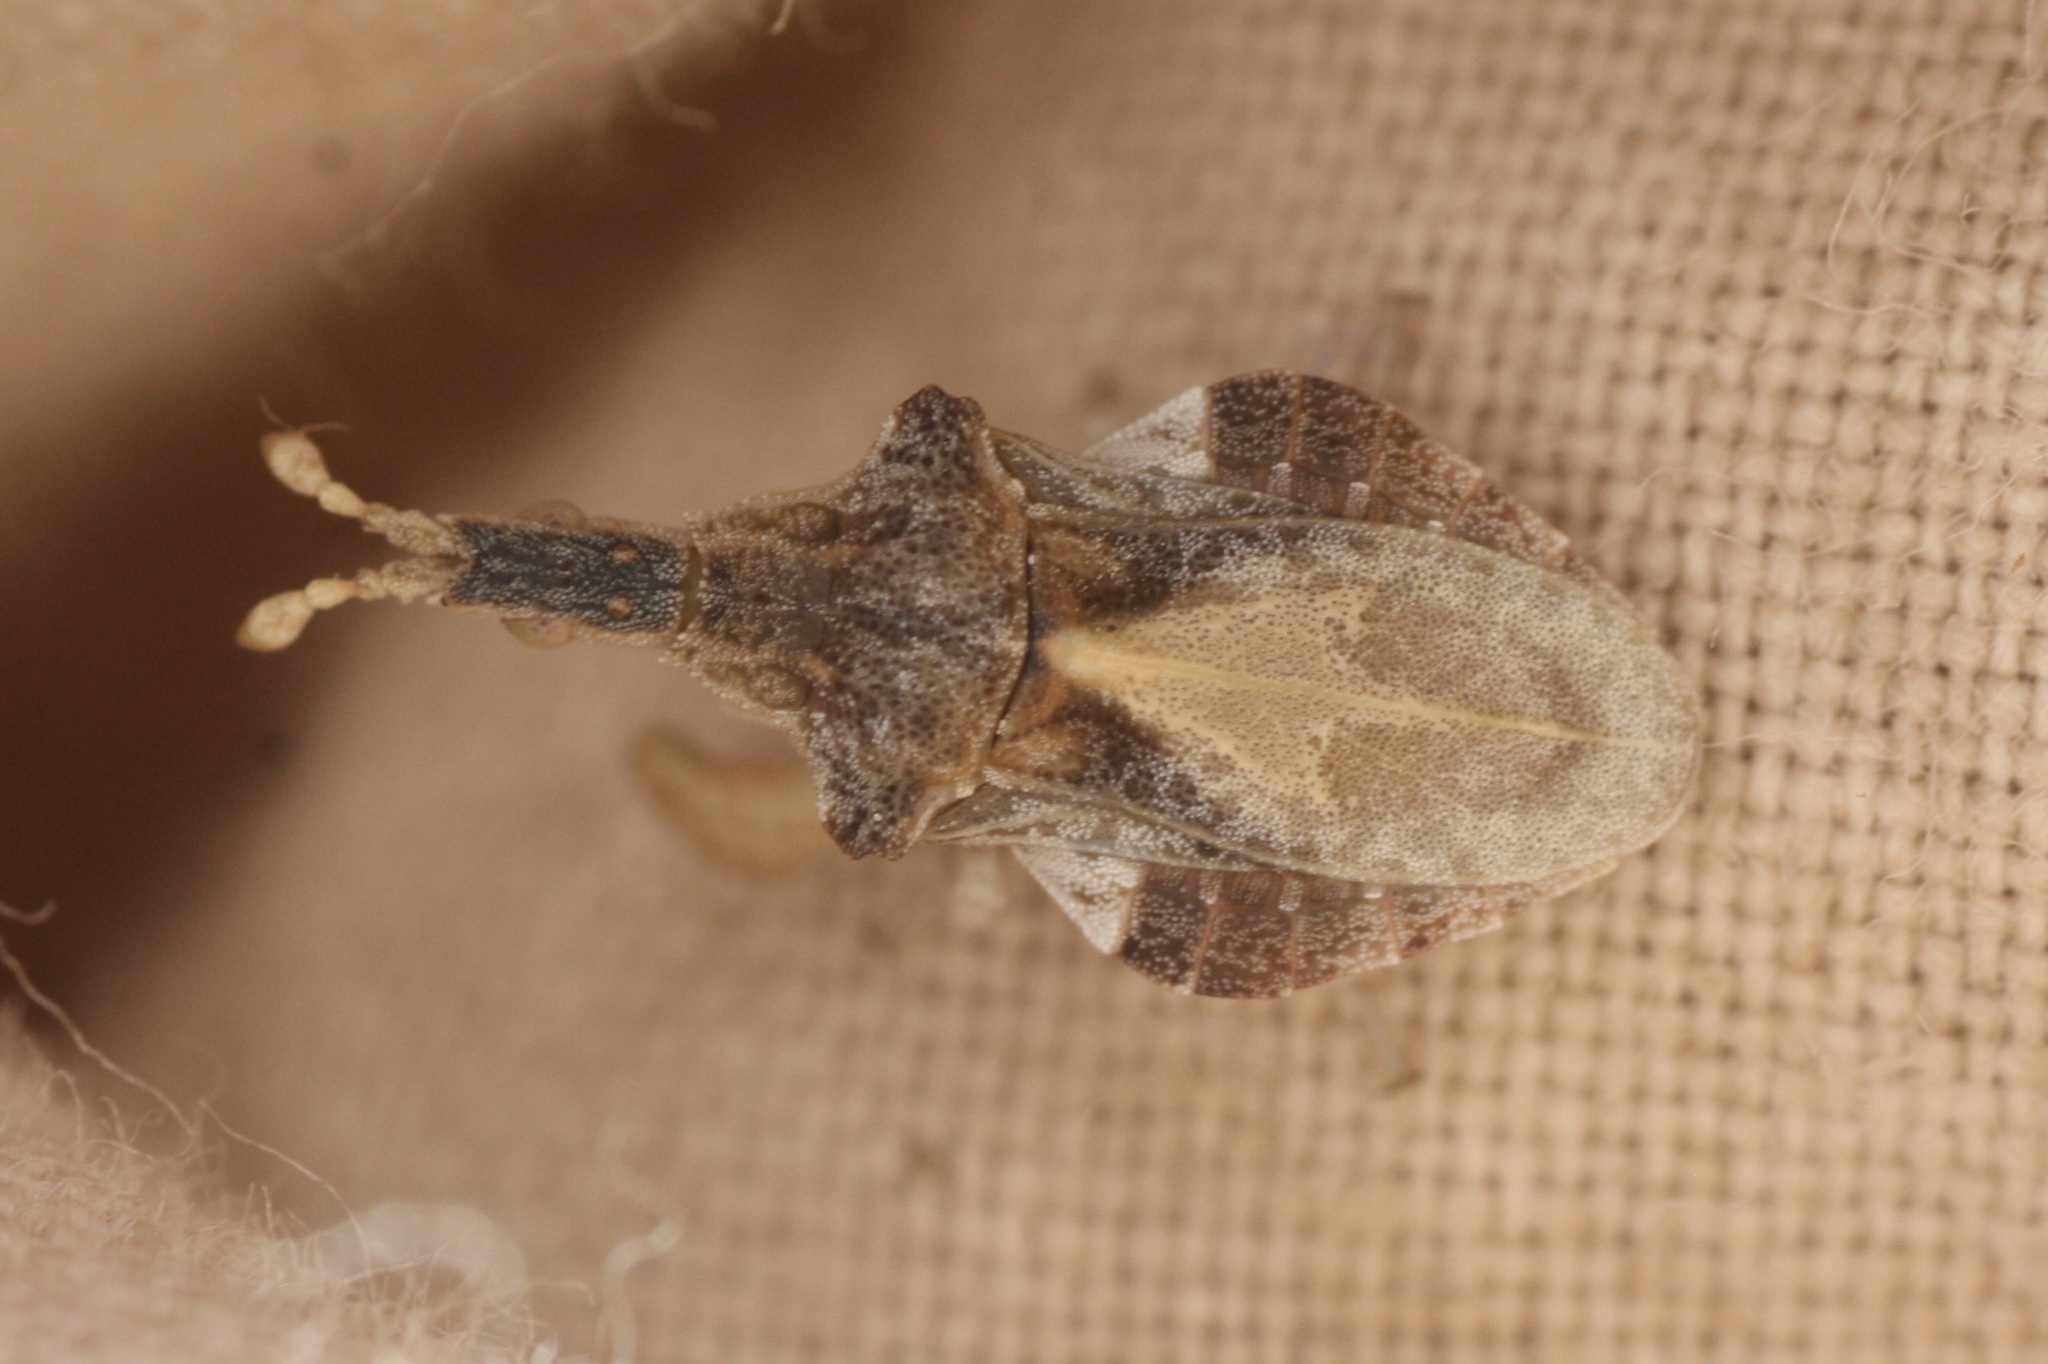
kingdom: Animalia
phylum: Arthropoda
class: Insecta
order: Hemiptera
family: Reduviidae
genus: Macrocephalus
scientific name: Macrocephalus dorannae
